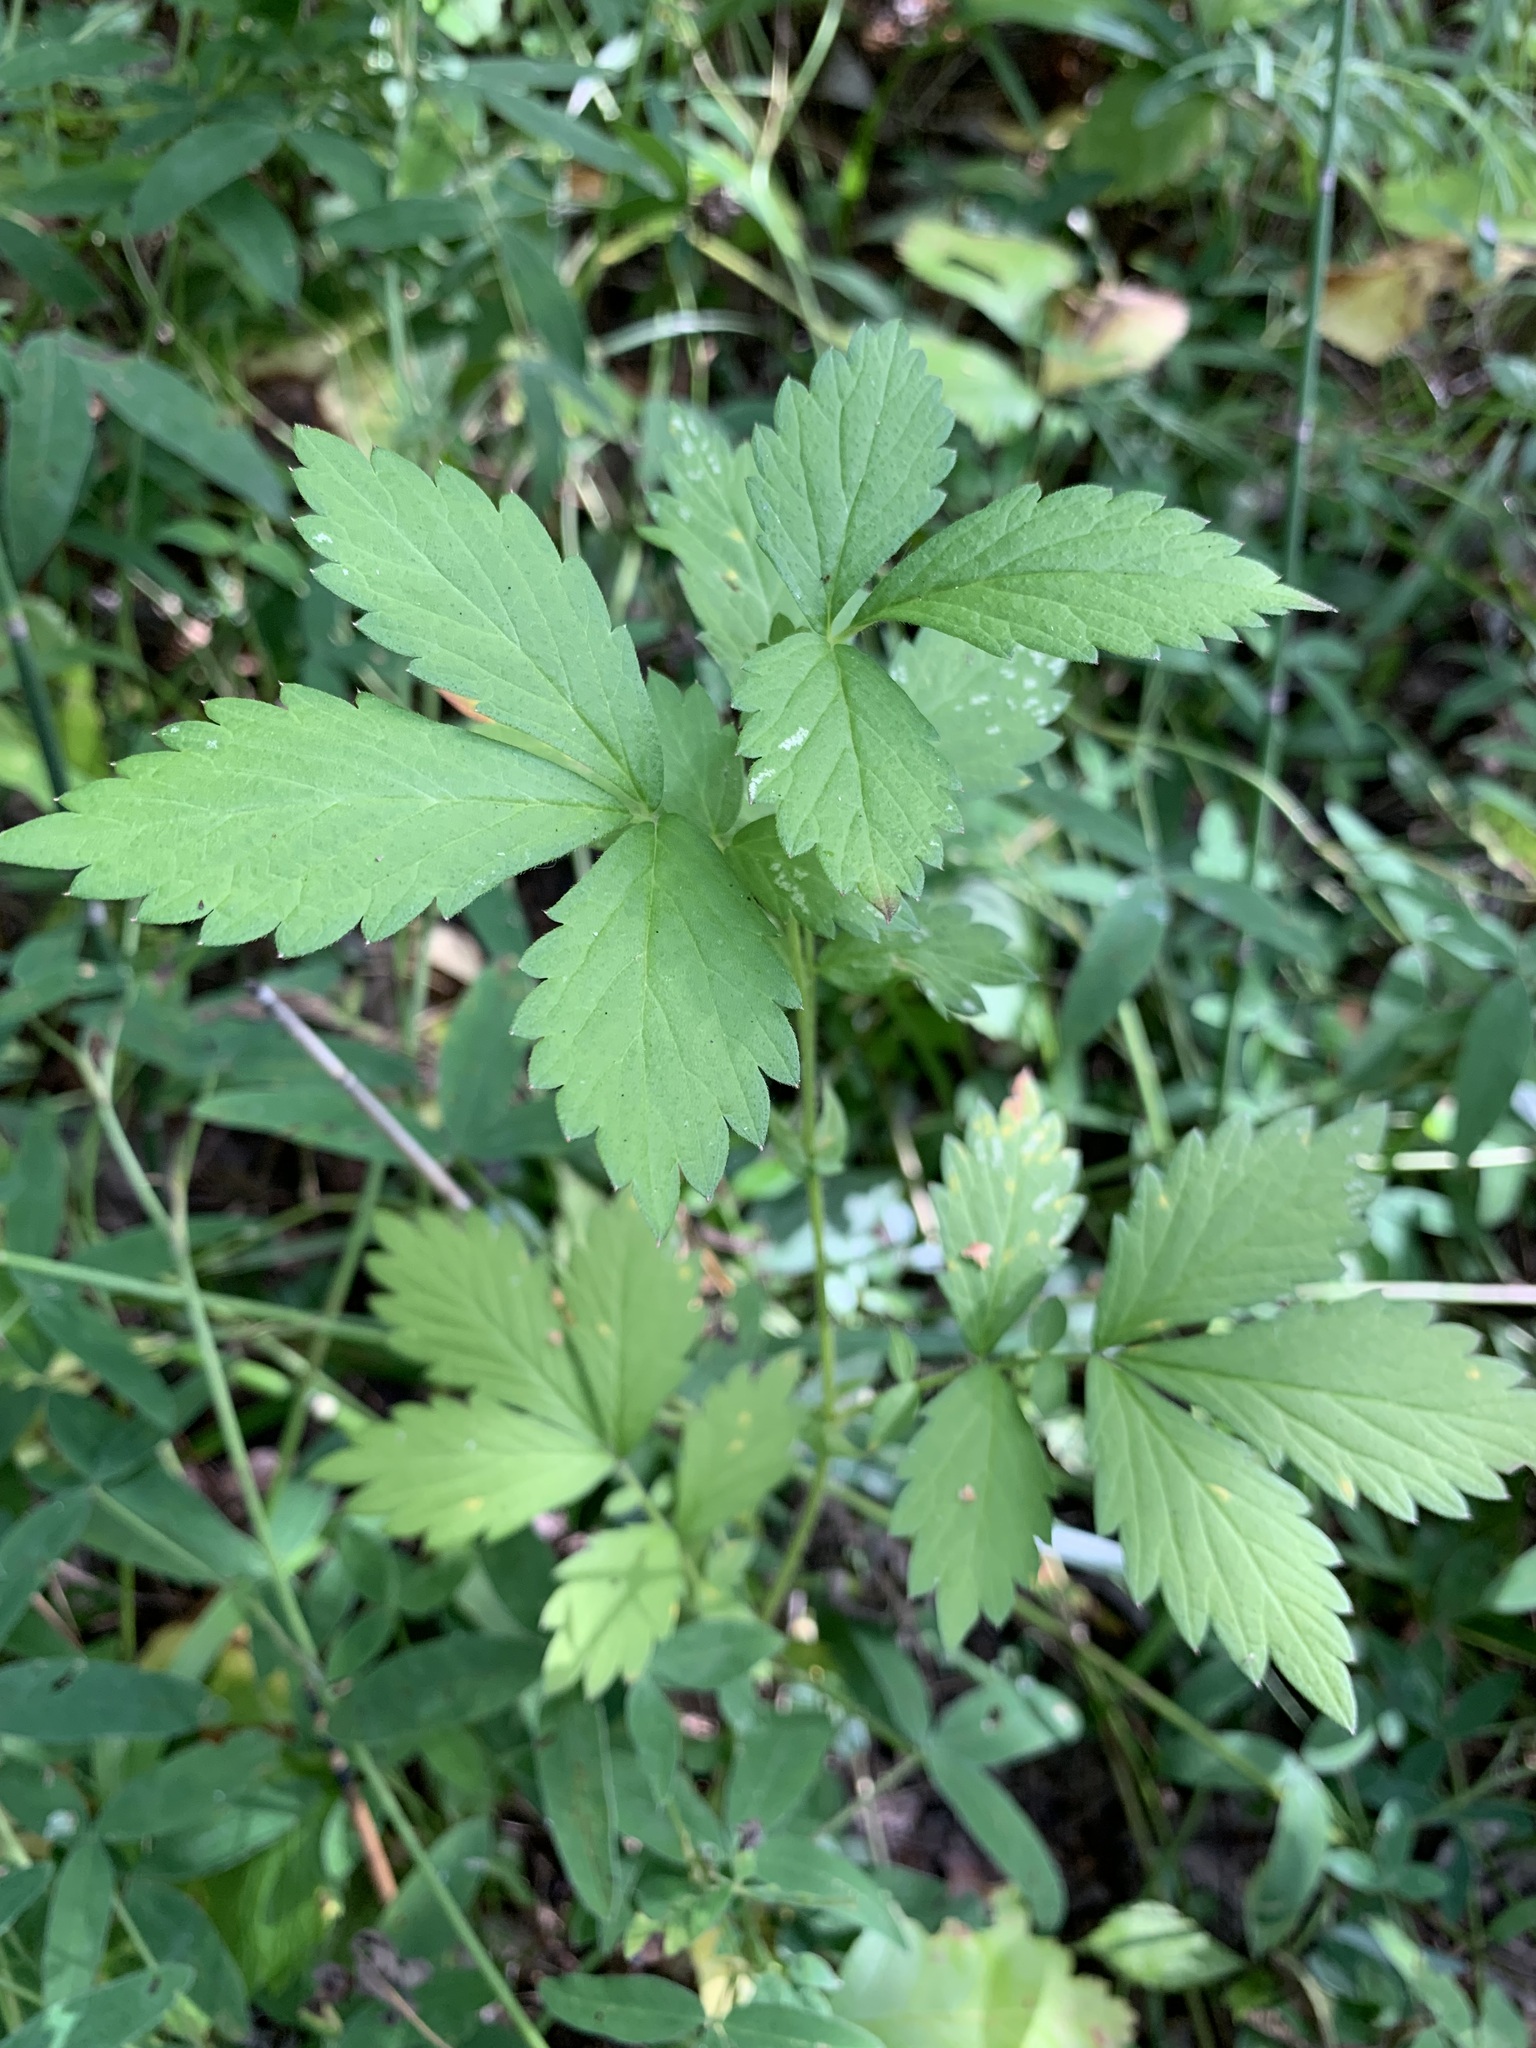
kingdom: Plantae
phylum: Tracheophyta
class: Magnoliopsida
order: Rosales
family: Rosaceae
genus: Agrimonia
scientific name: Agrimonia pilosa
